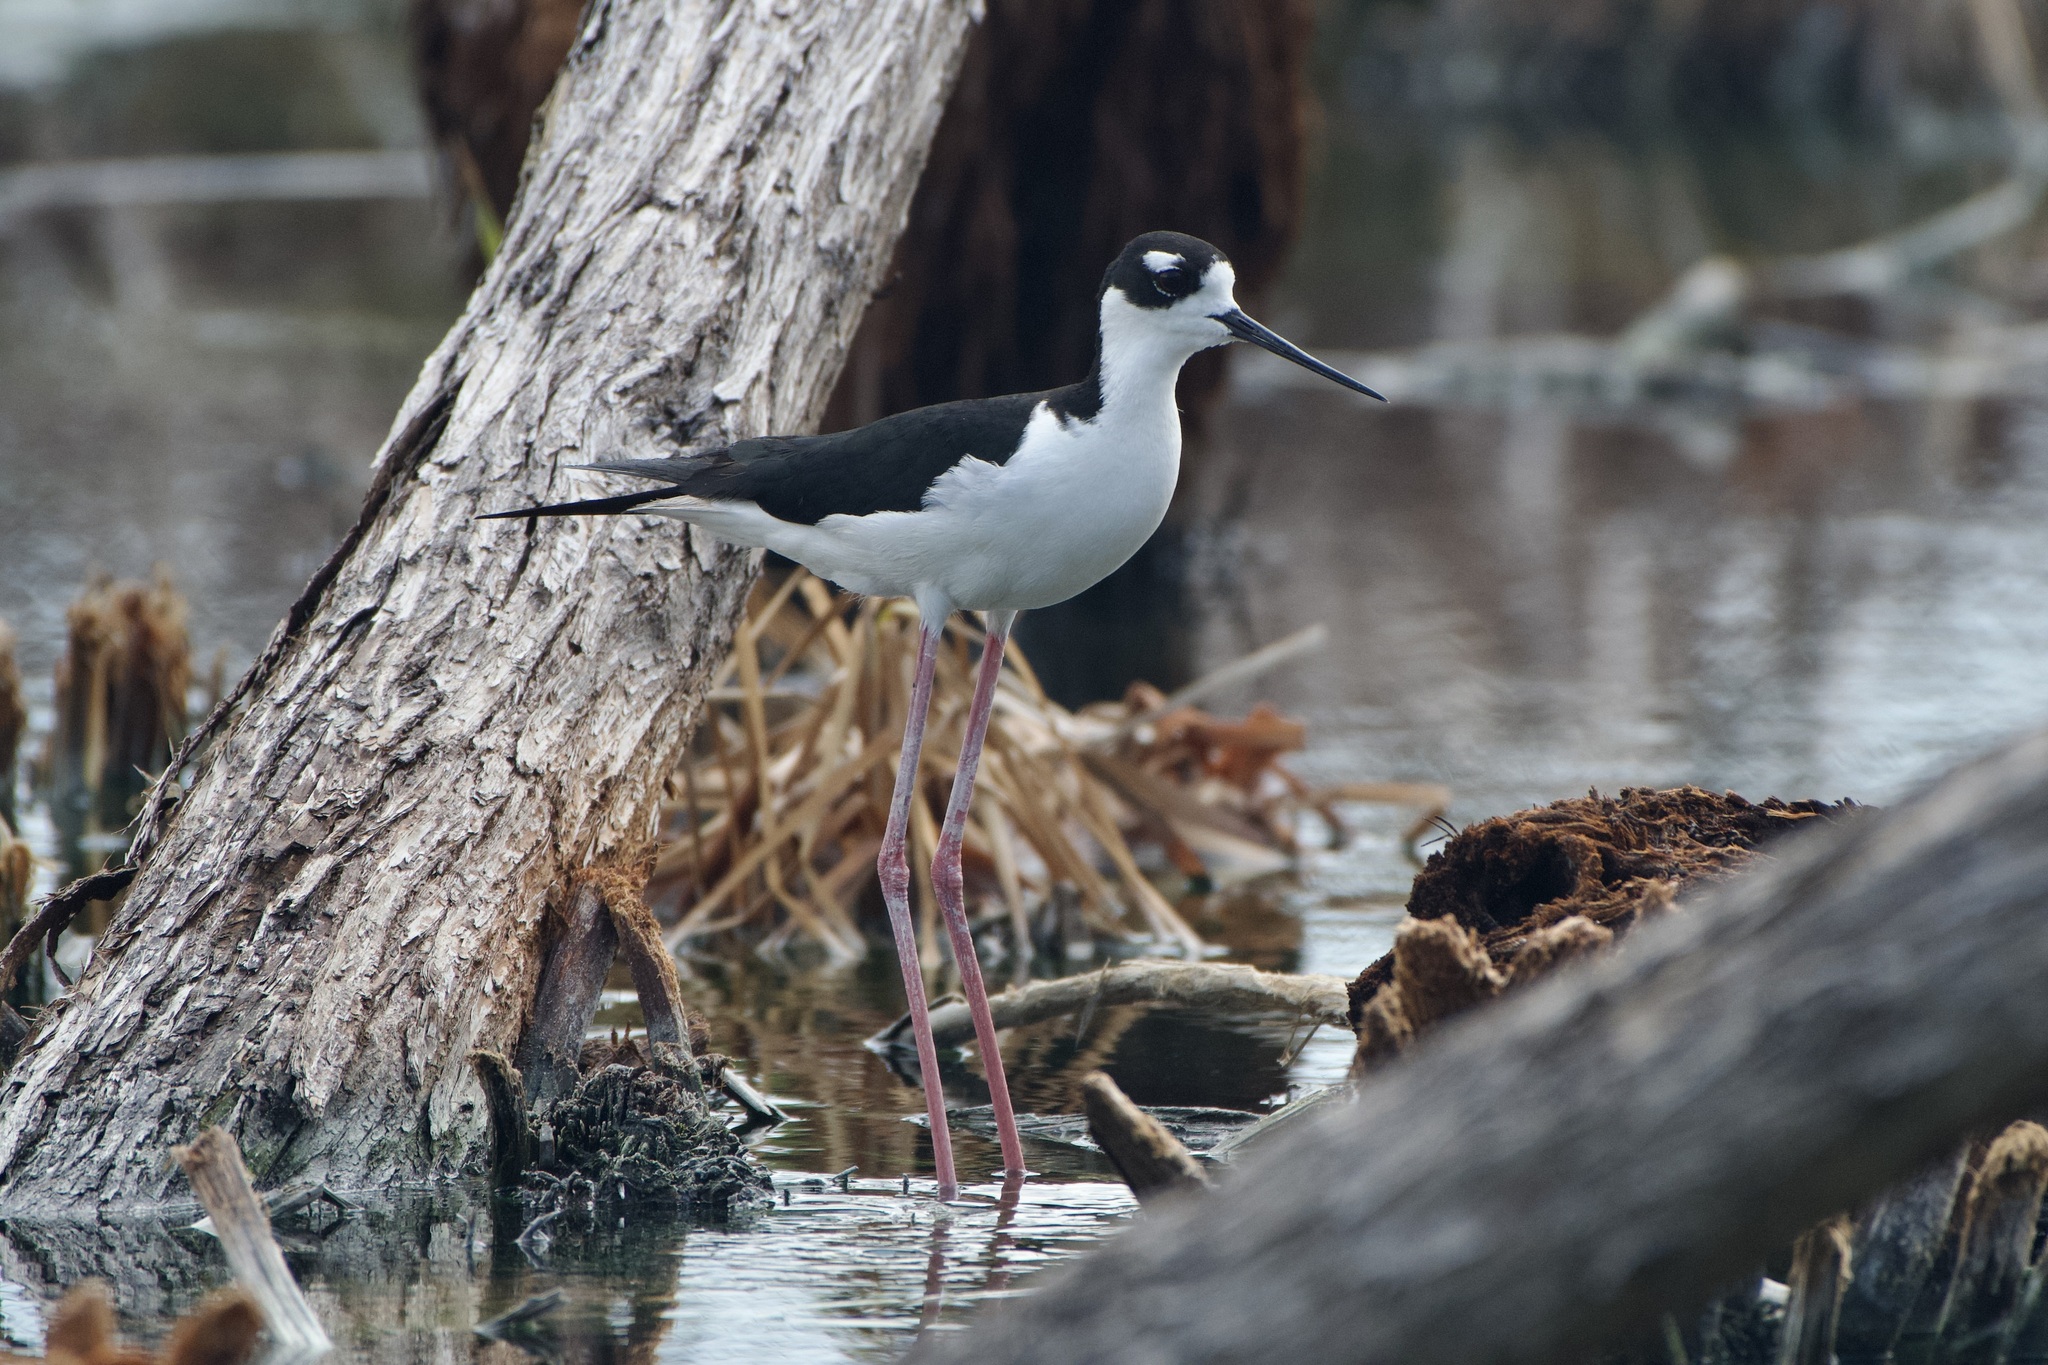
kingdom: Animalia
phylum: Chordata
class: Aves
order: Charadriiformes
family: Recurvirostridae
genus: Himantopus
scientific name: Himantopus mexicanus
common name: Black-necked stilt
